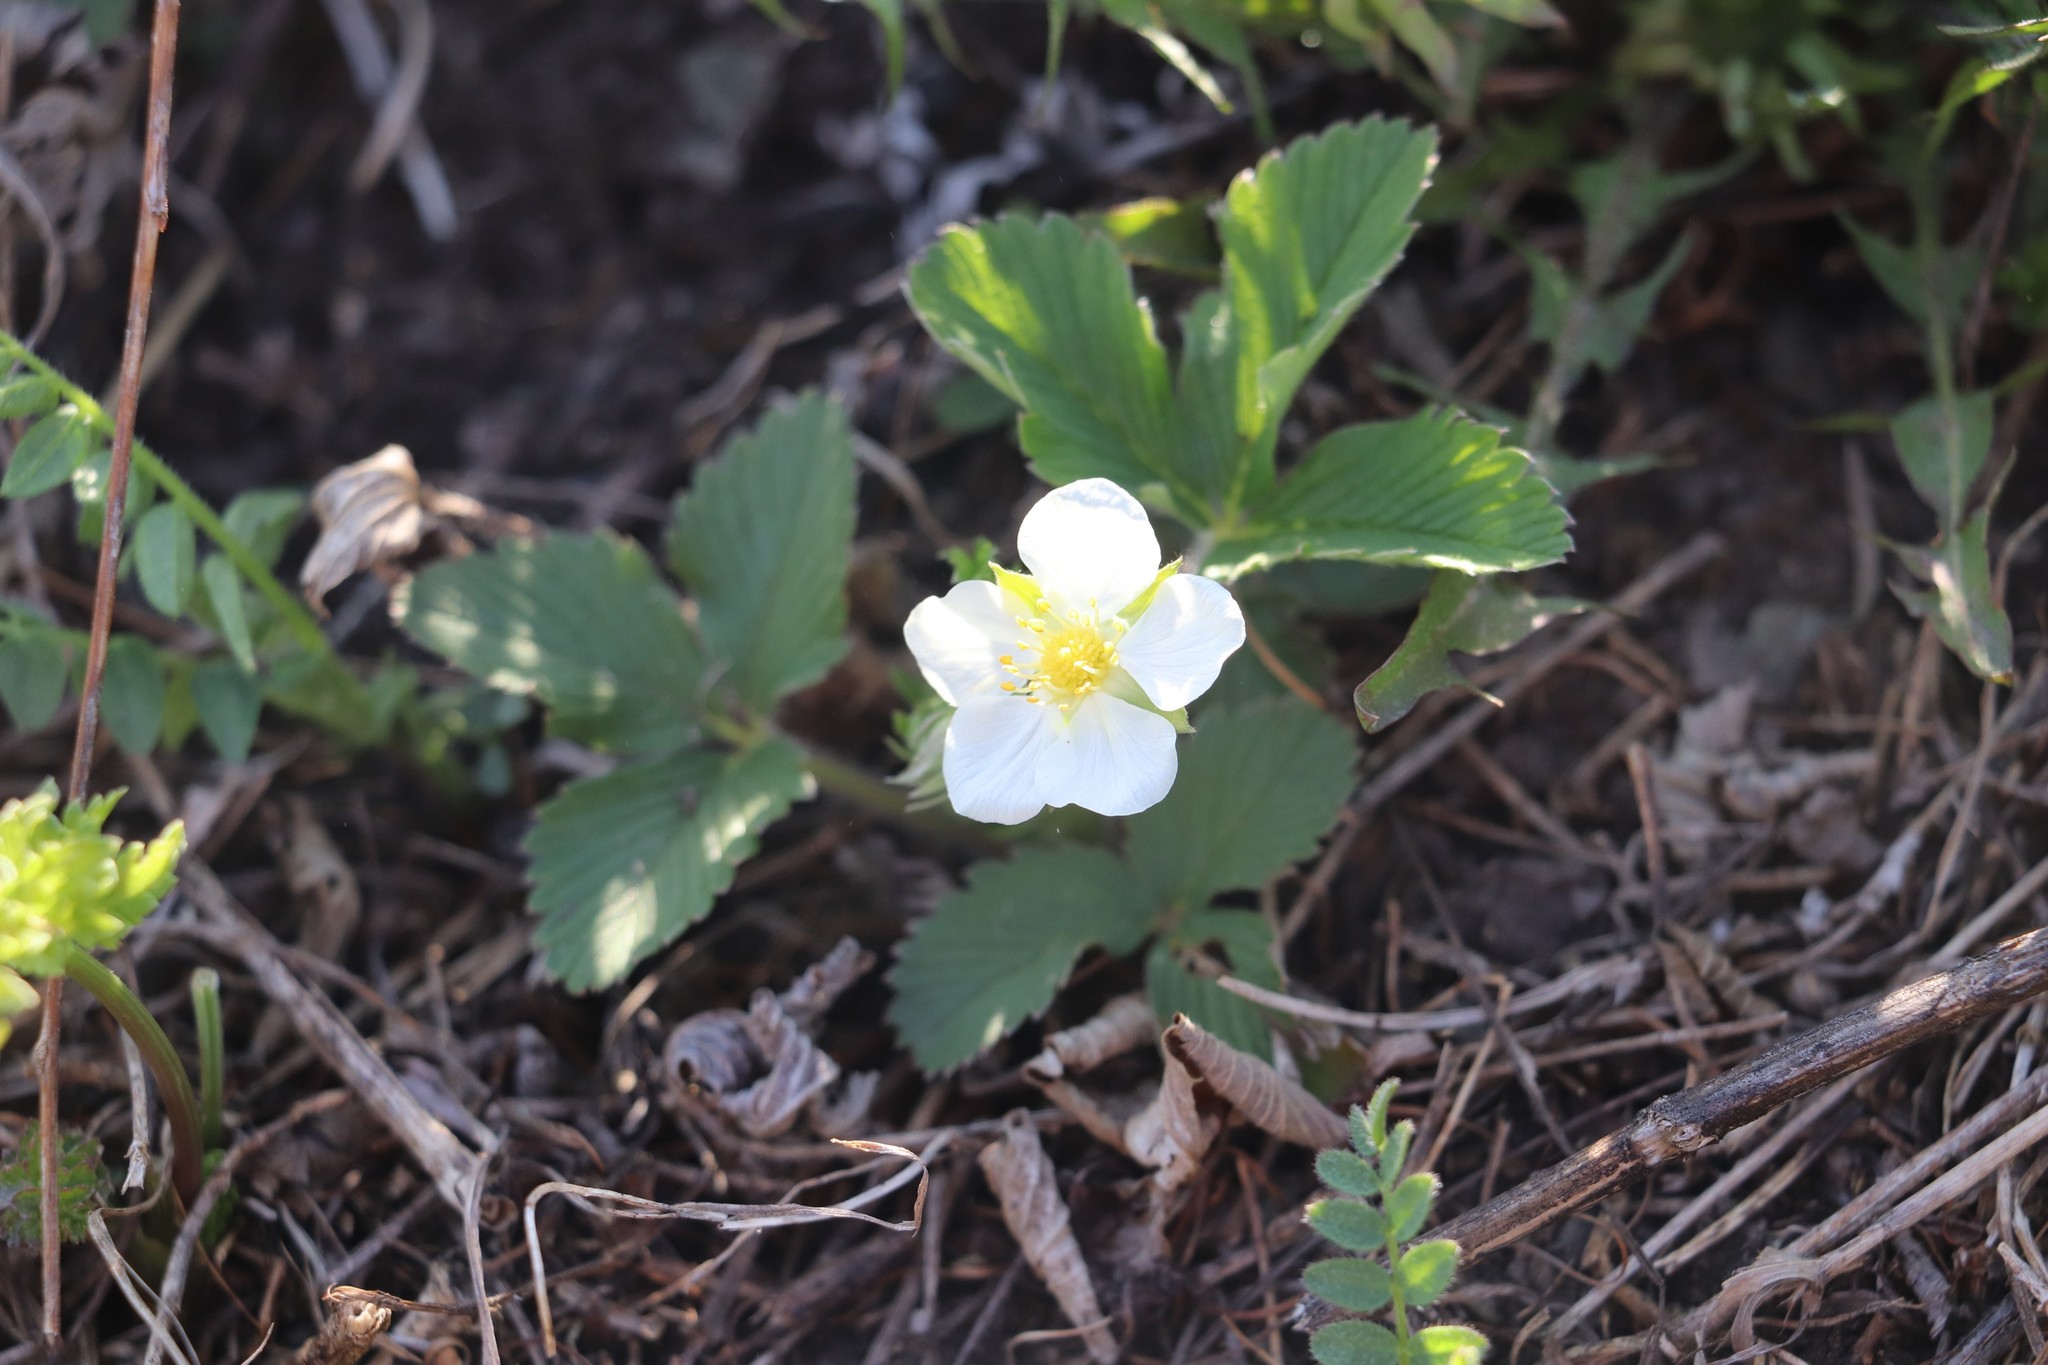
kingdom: Plantae
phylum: Tracheophyta
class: Magnoliopsida
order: Rosales
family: Rosaceae
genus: Fragaria
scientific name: Fragaria viridis
